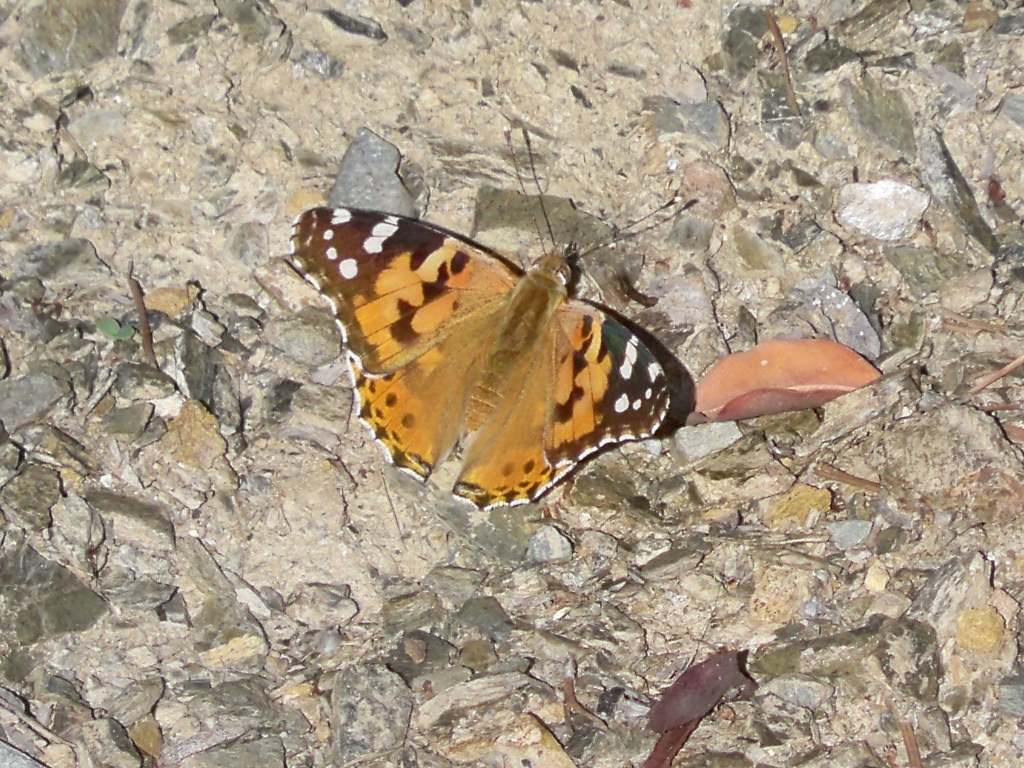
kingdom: Animalia
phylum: Arthropoda
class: Insecta
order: Lepidoptera
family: Nymphalidae
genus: Vanessa
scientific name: Vanessa cardui
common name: Painted lady
